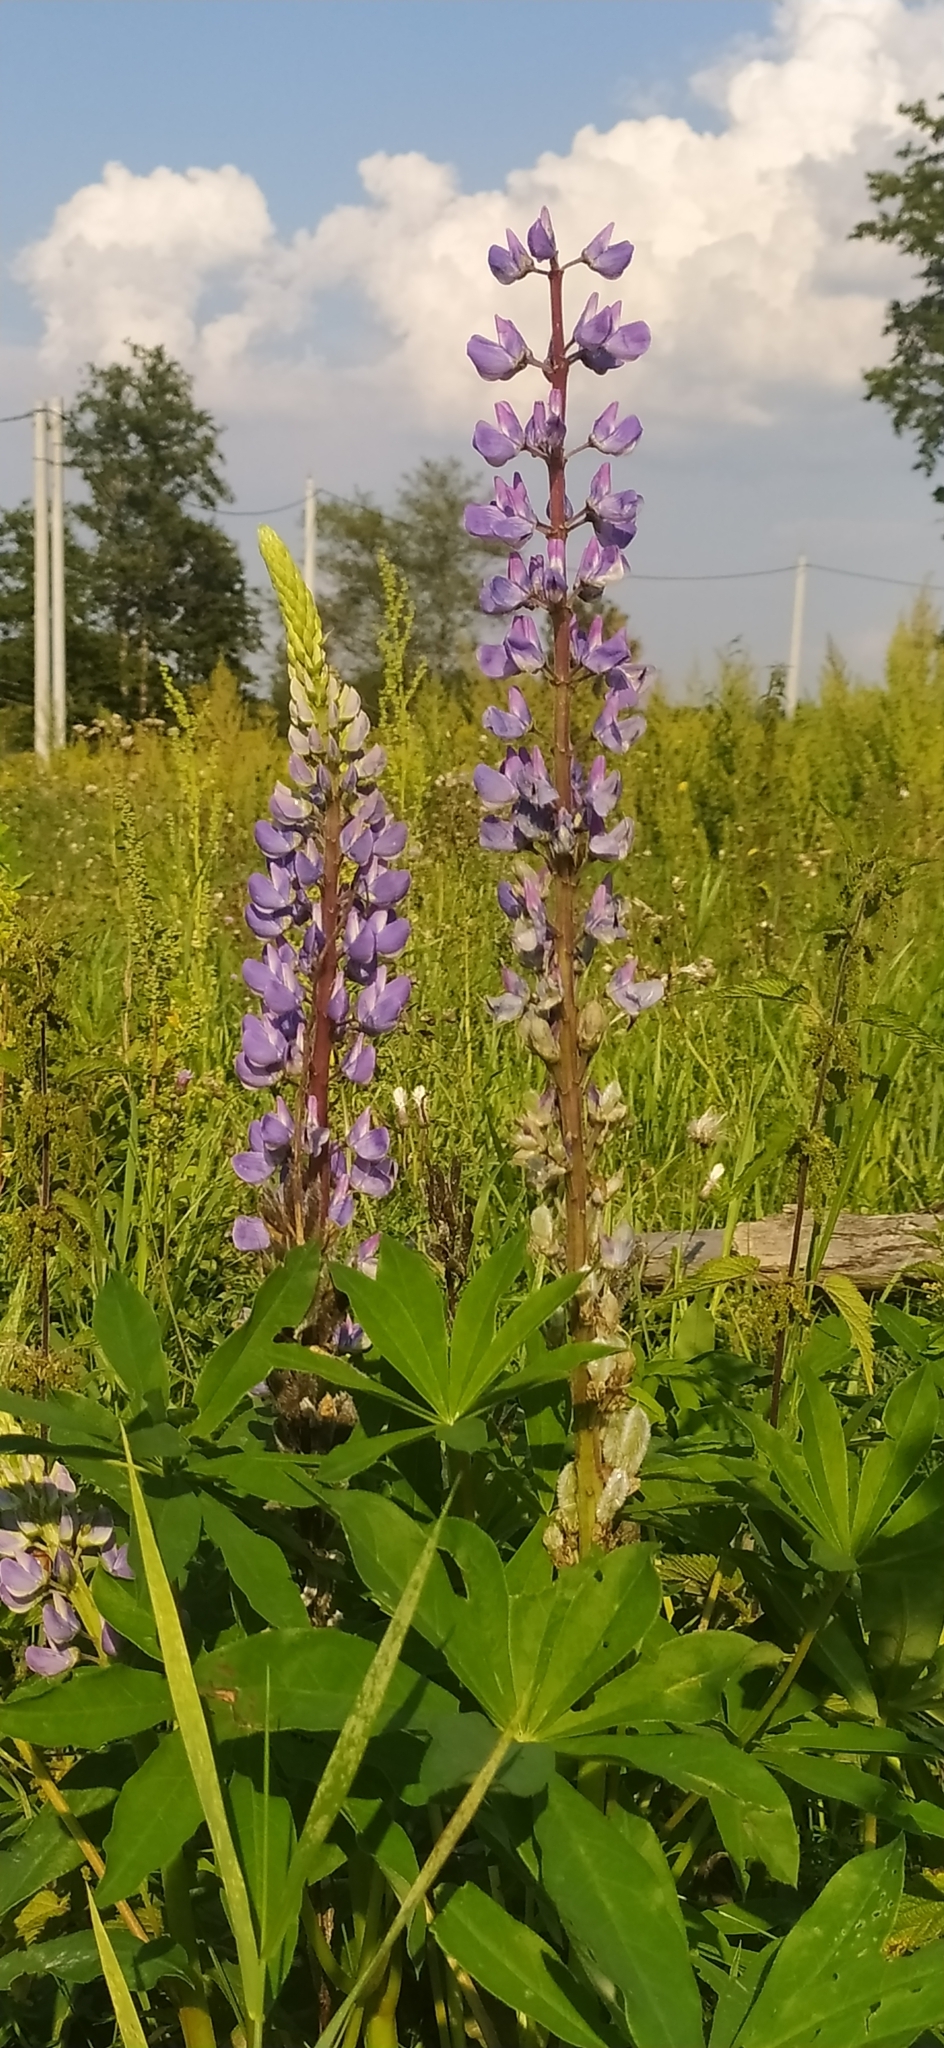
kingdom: Plantae
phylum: Tracheophyta
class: Magnoliopsida
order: Fabales
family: Fabaceae
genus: Lupinus
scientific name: Lupinus polyphyllus
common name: Garden lupin
